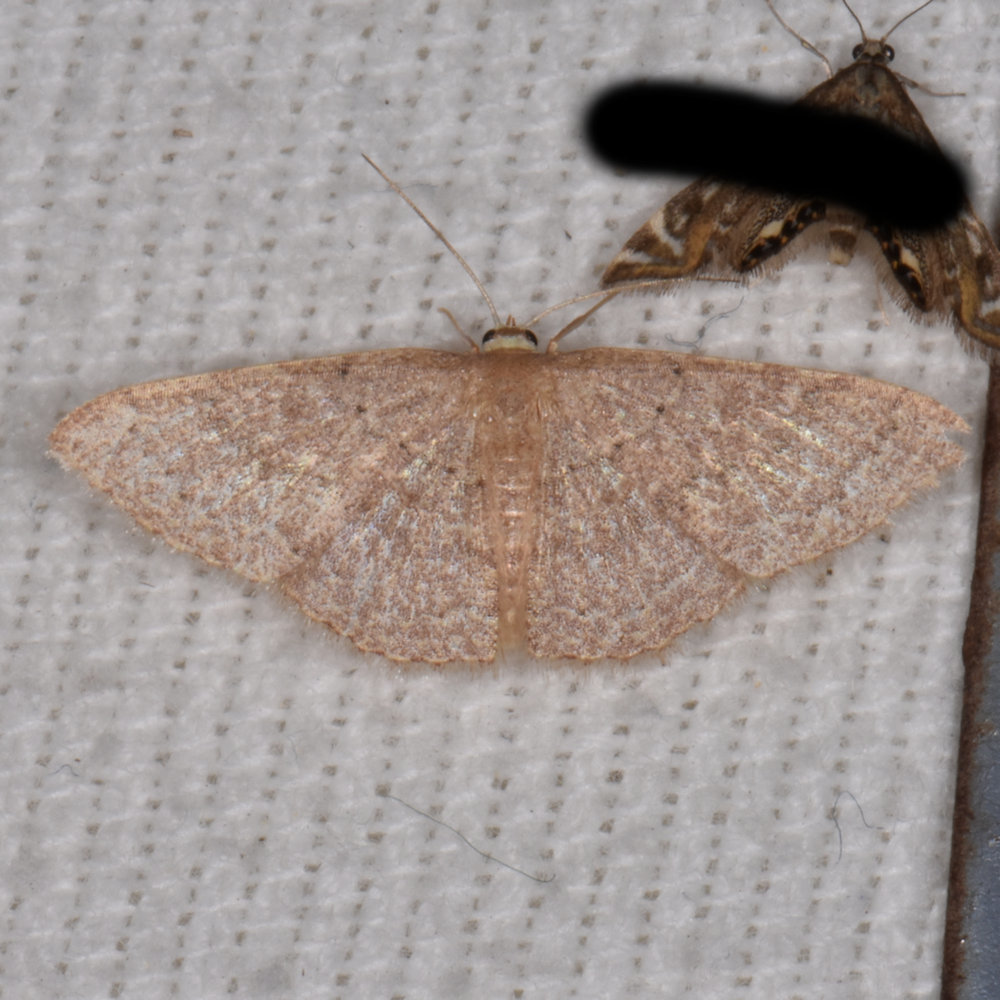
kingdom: Animalia
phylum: Arthropoda
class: Insecta
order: Lepidoptera
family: Geometridae
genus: Pleuroprucha
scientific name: Pleuroprucha insulsaria
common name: Common tan wave
